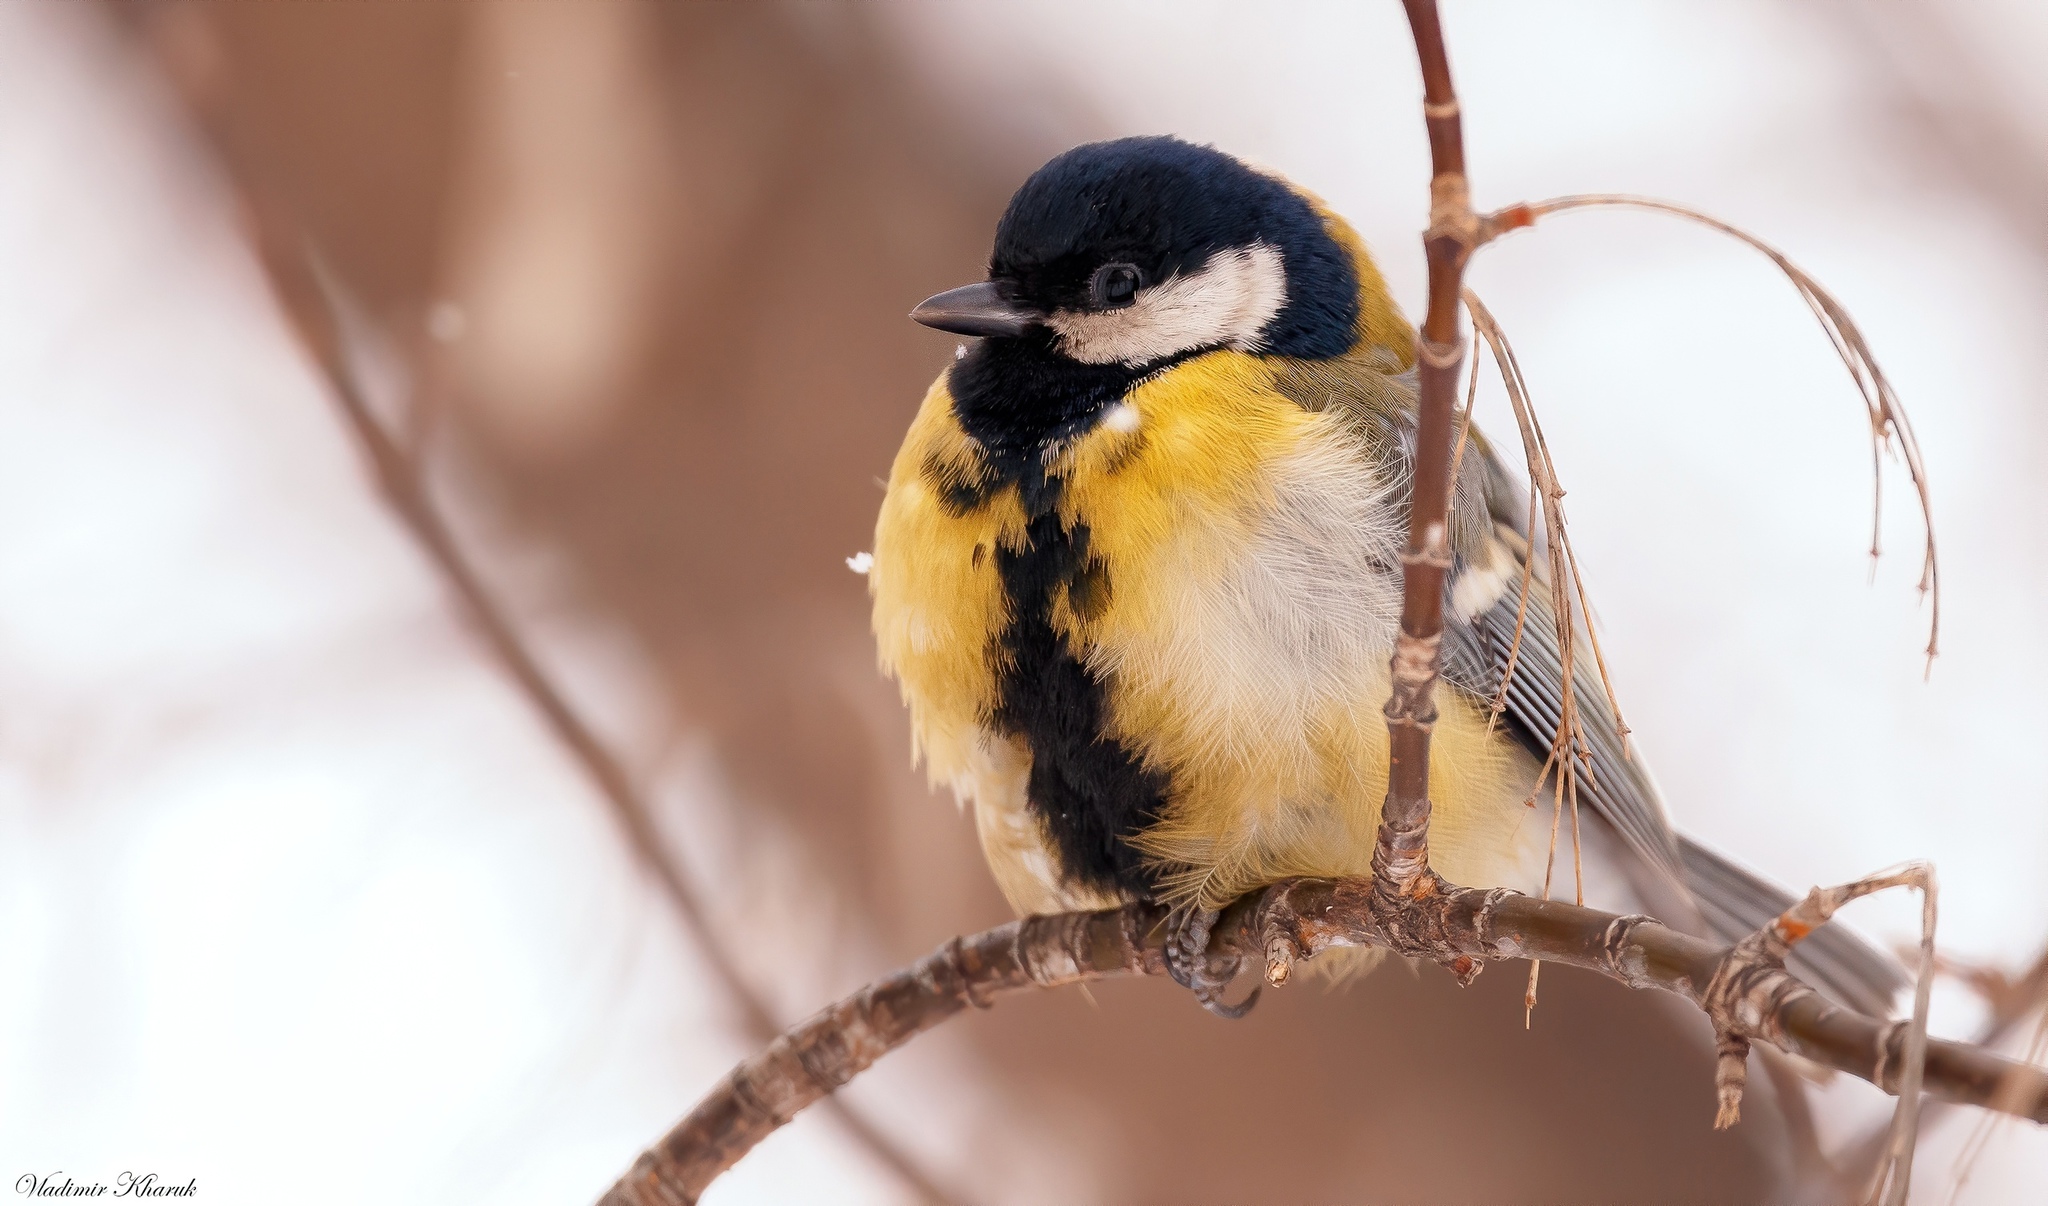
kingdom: Animalia
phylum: Chordata
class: Aves
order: Passeriformes
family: Paridae
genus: Parus
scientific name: Parus major
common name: Great tit
